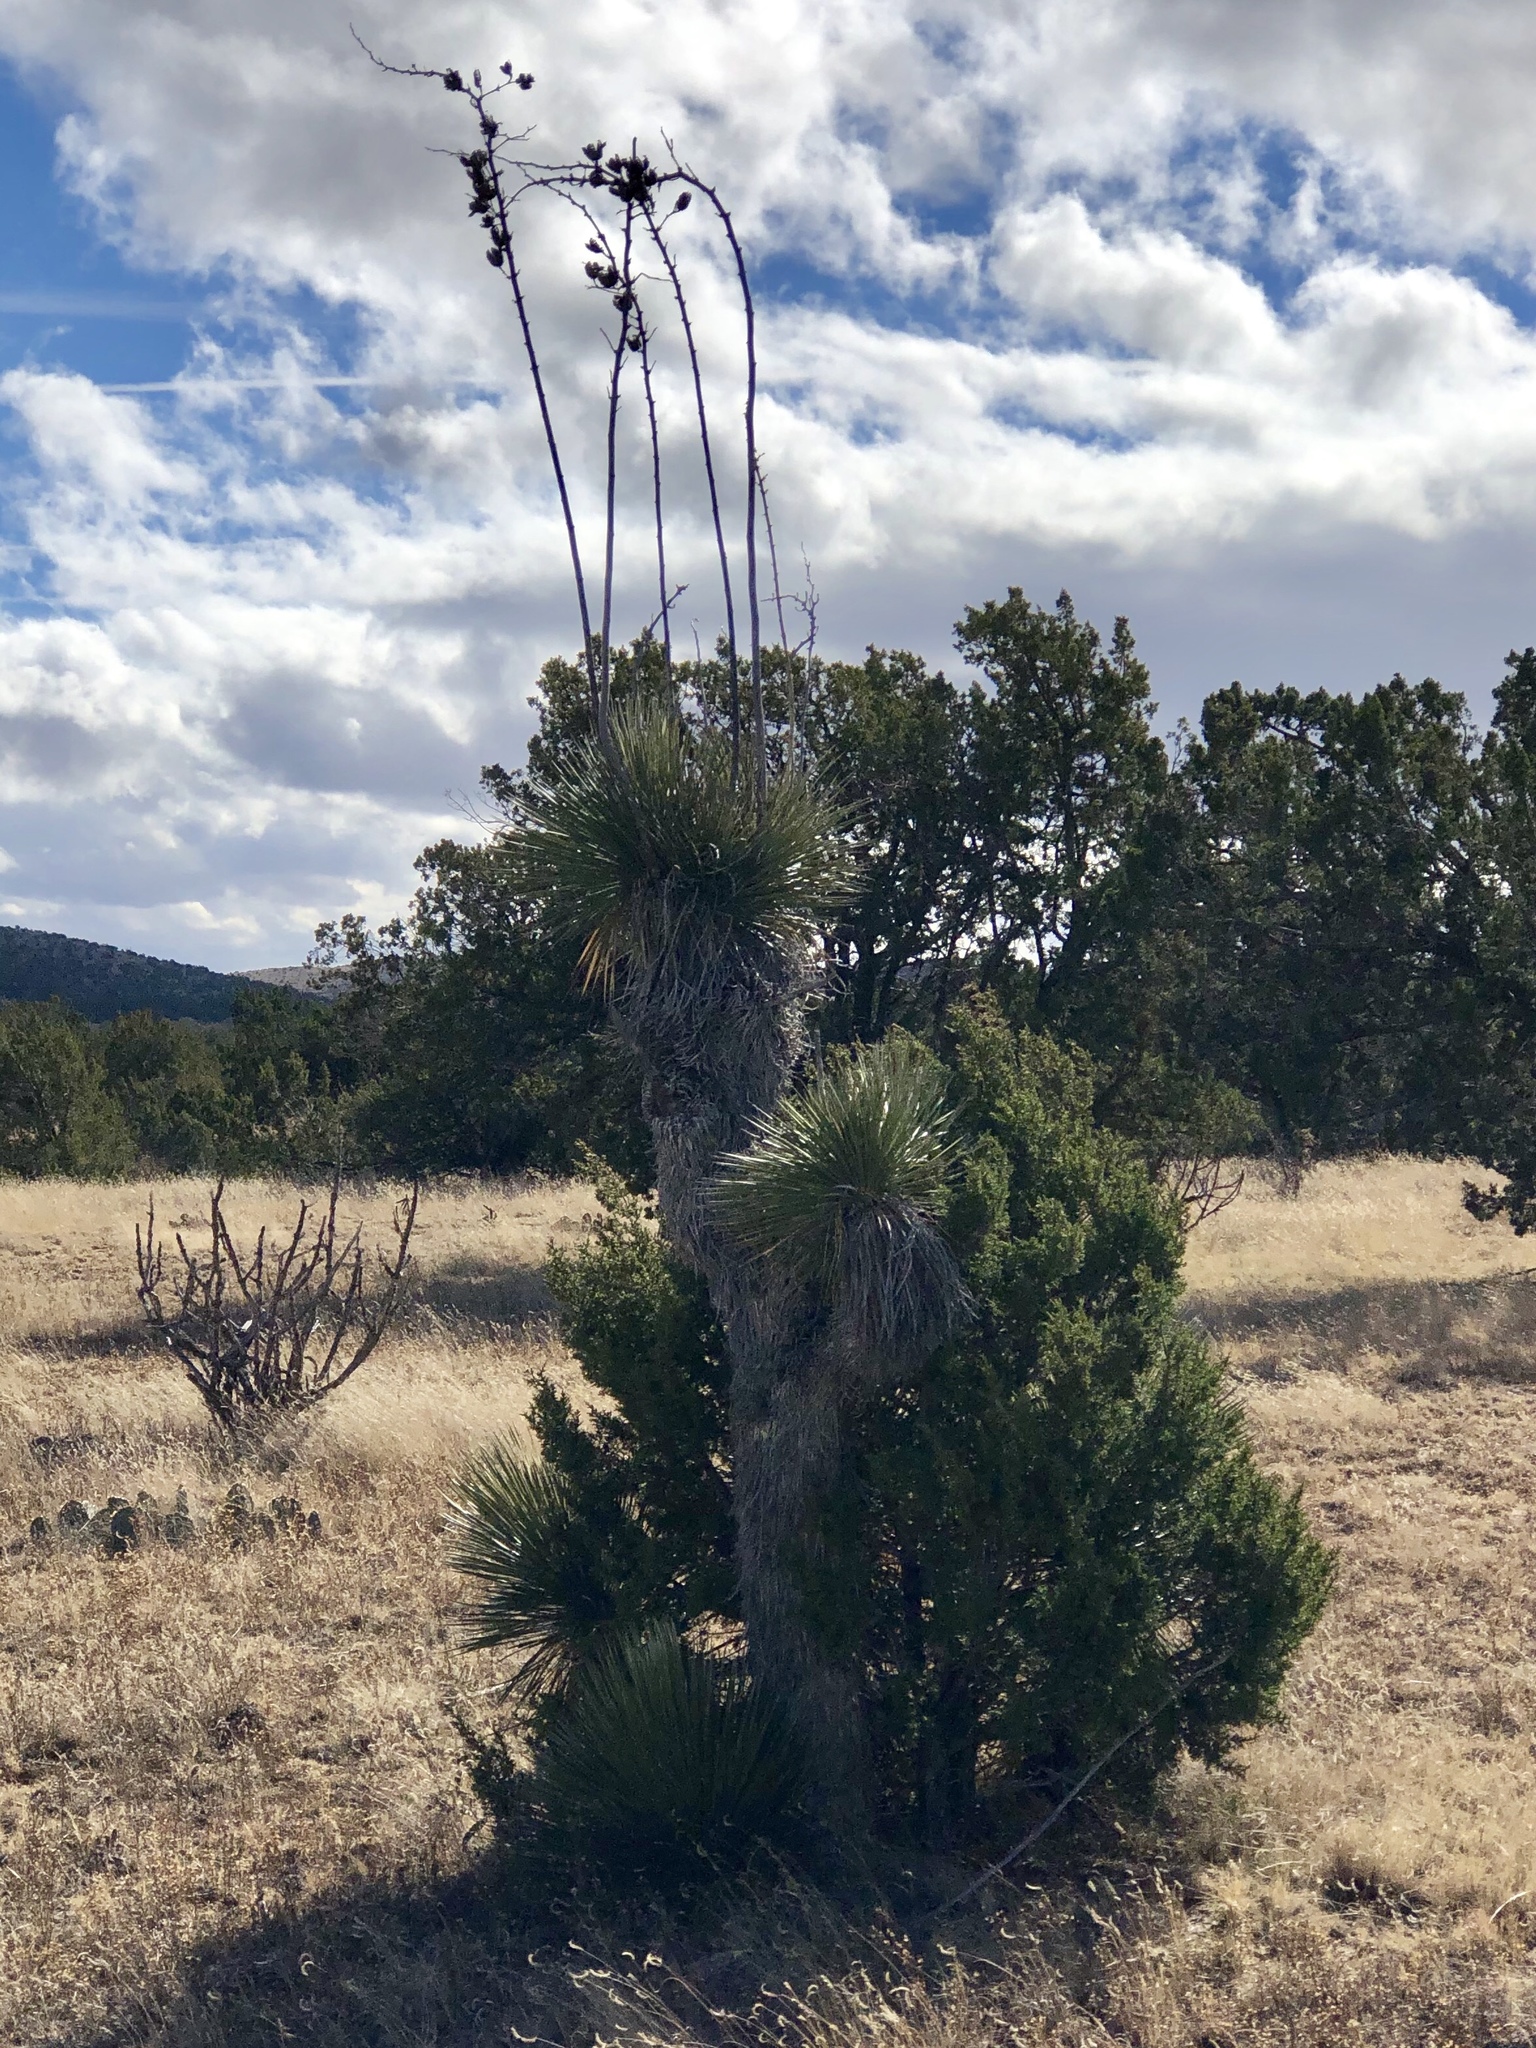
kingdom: Plantae
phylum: Tracheophyta
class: Liliopsida
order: Asparagales
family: Asparagaceae
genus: Yucca
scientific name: Yucca elata
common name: Palmella
